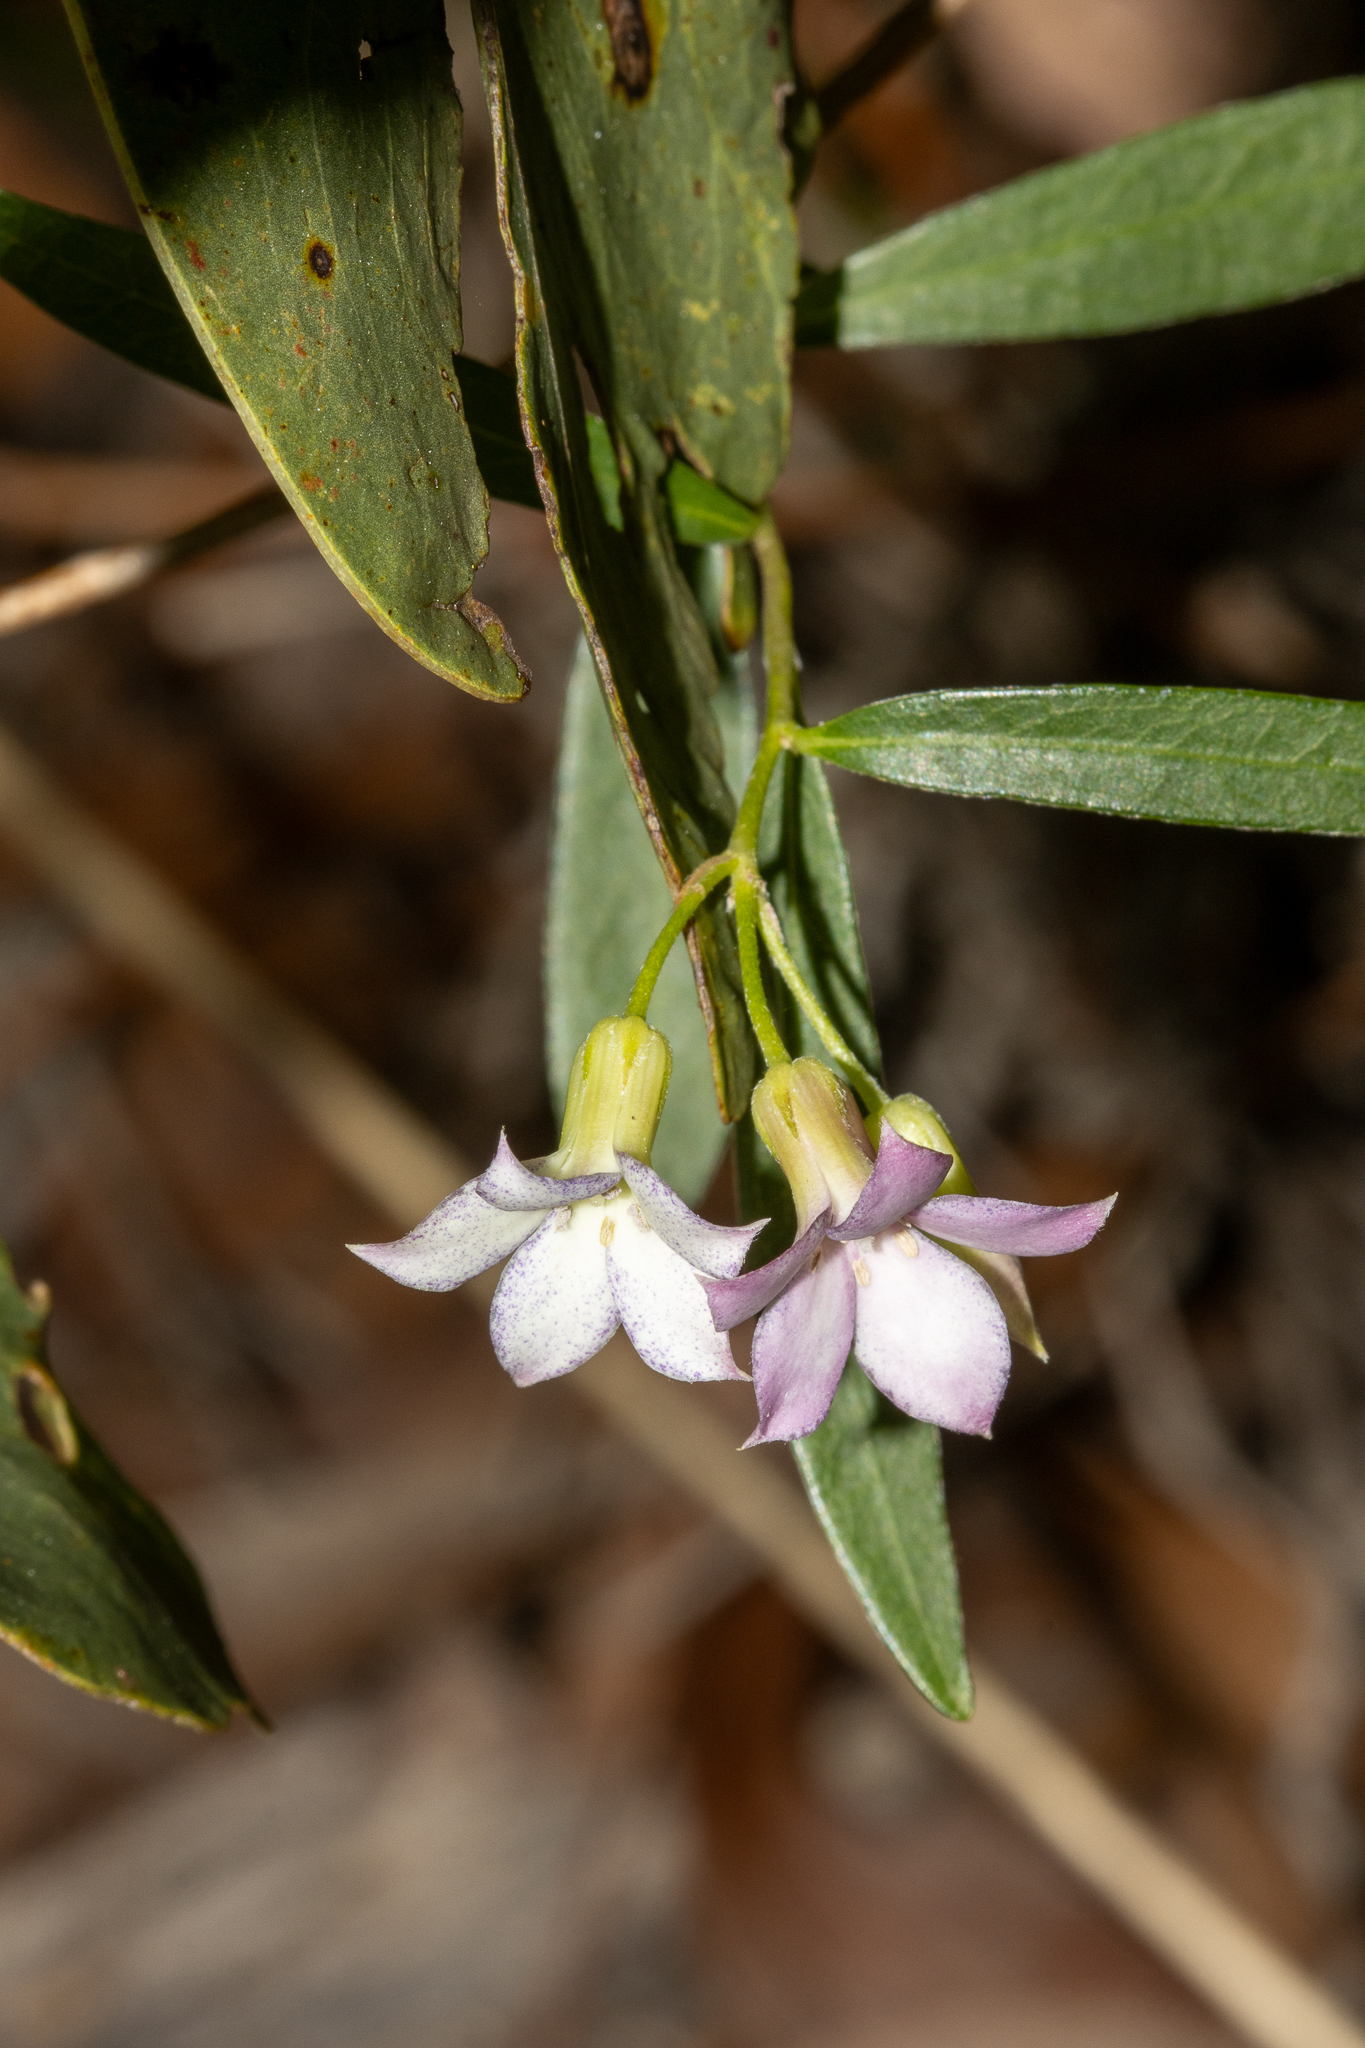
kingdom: Plantae
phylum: Tracheophyta
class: Magnoliopsida
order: Apiales
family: Pittosporaceae
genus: Billardiera
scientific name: Billardiera cymosa
